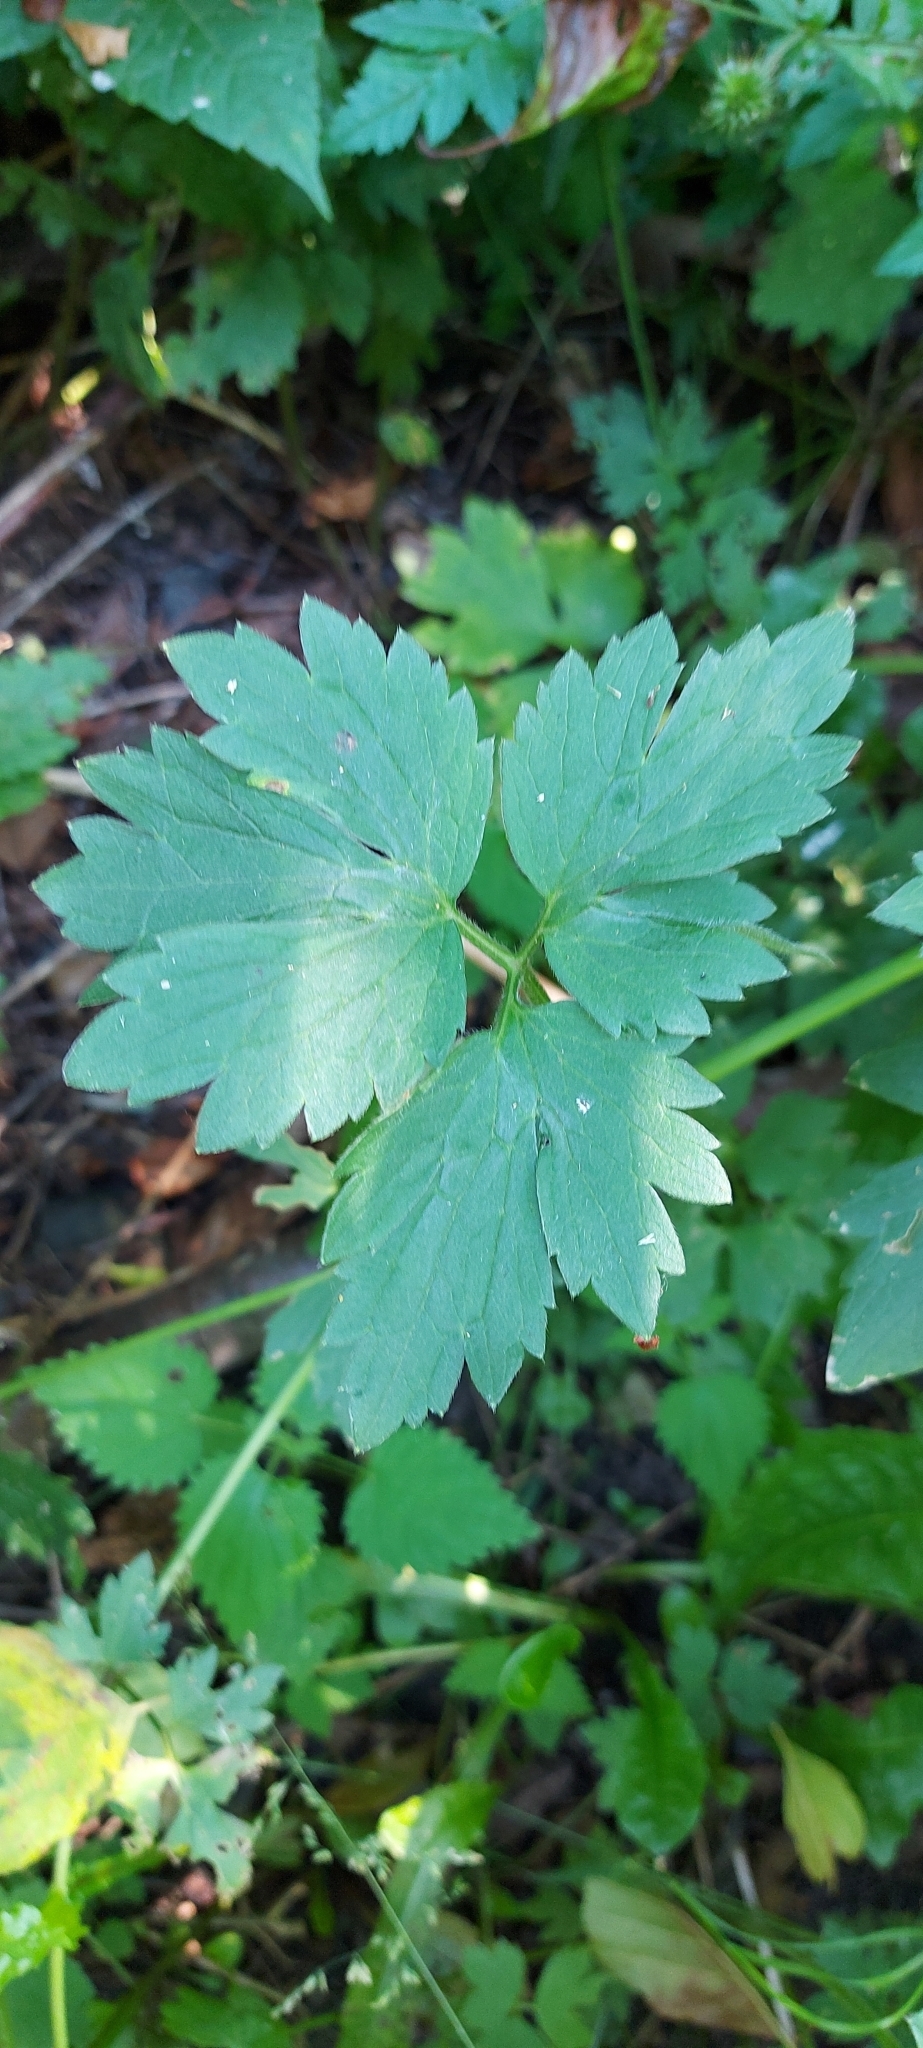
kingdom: Plantae
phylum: Tracheophyta
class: Magnoliopsida
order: Ranunculales
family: Ranunculaceae
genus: Ranunculus
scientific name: Ranunculus repens
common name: Creeping buttercup
